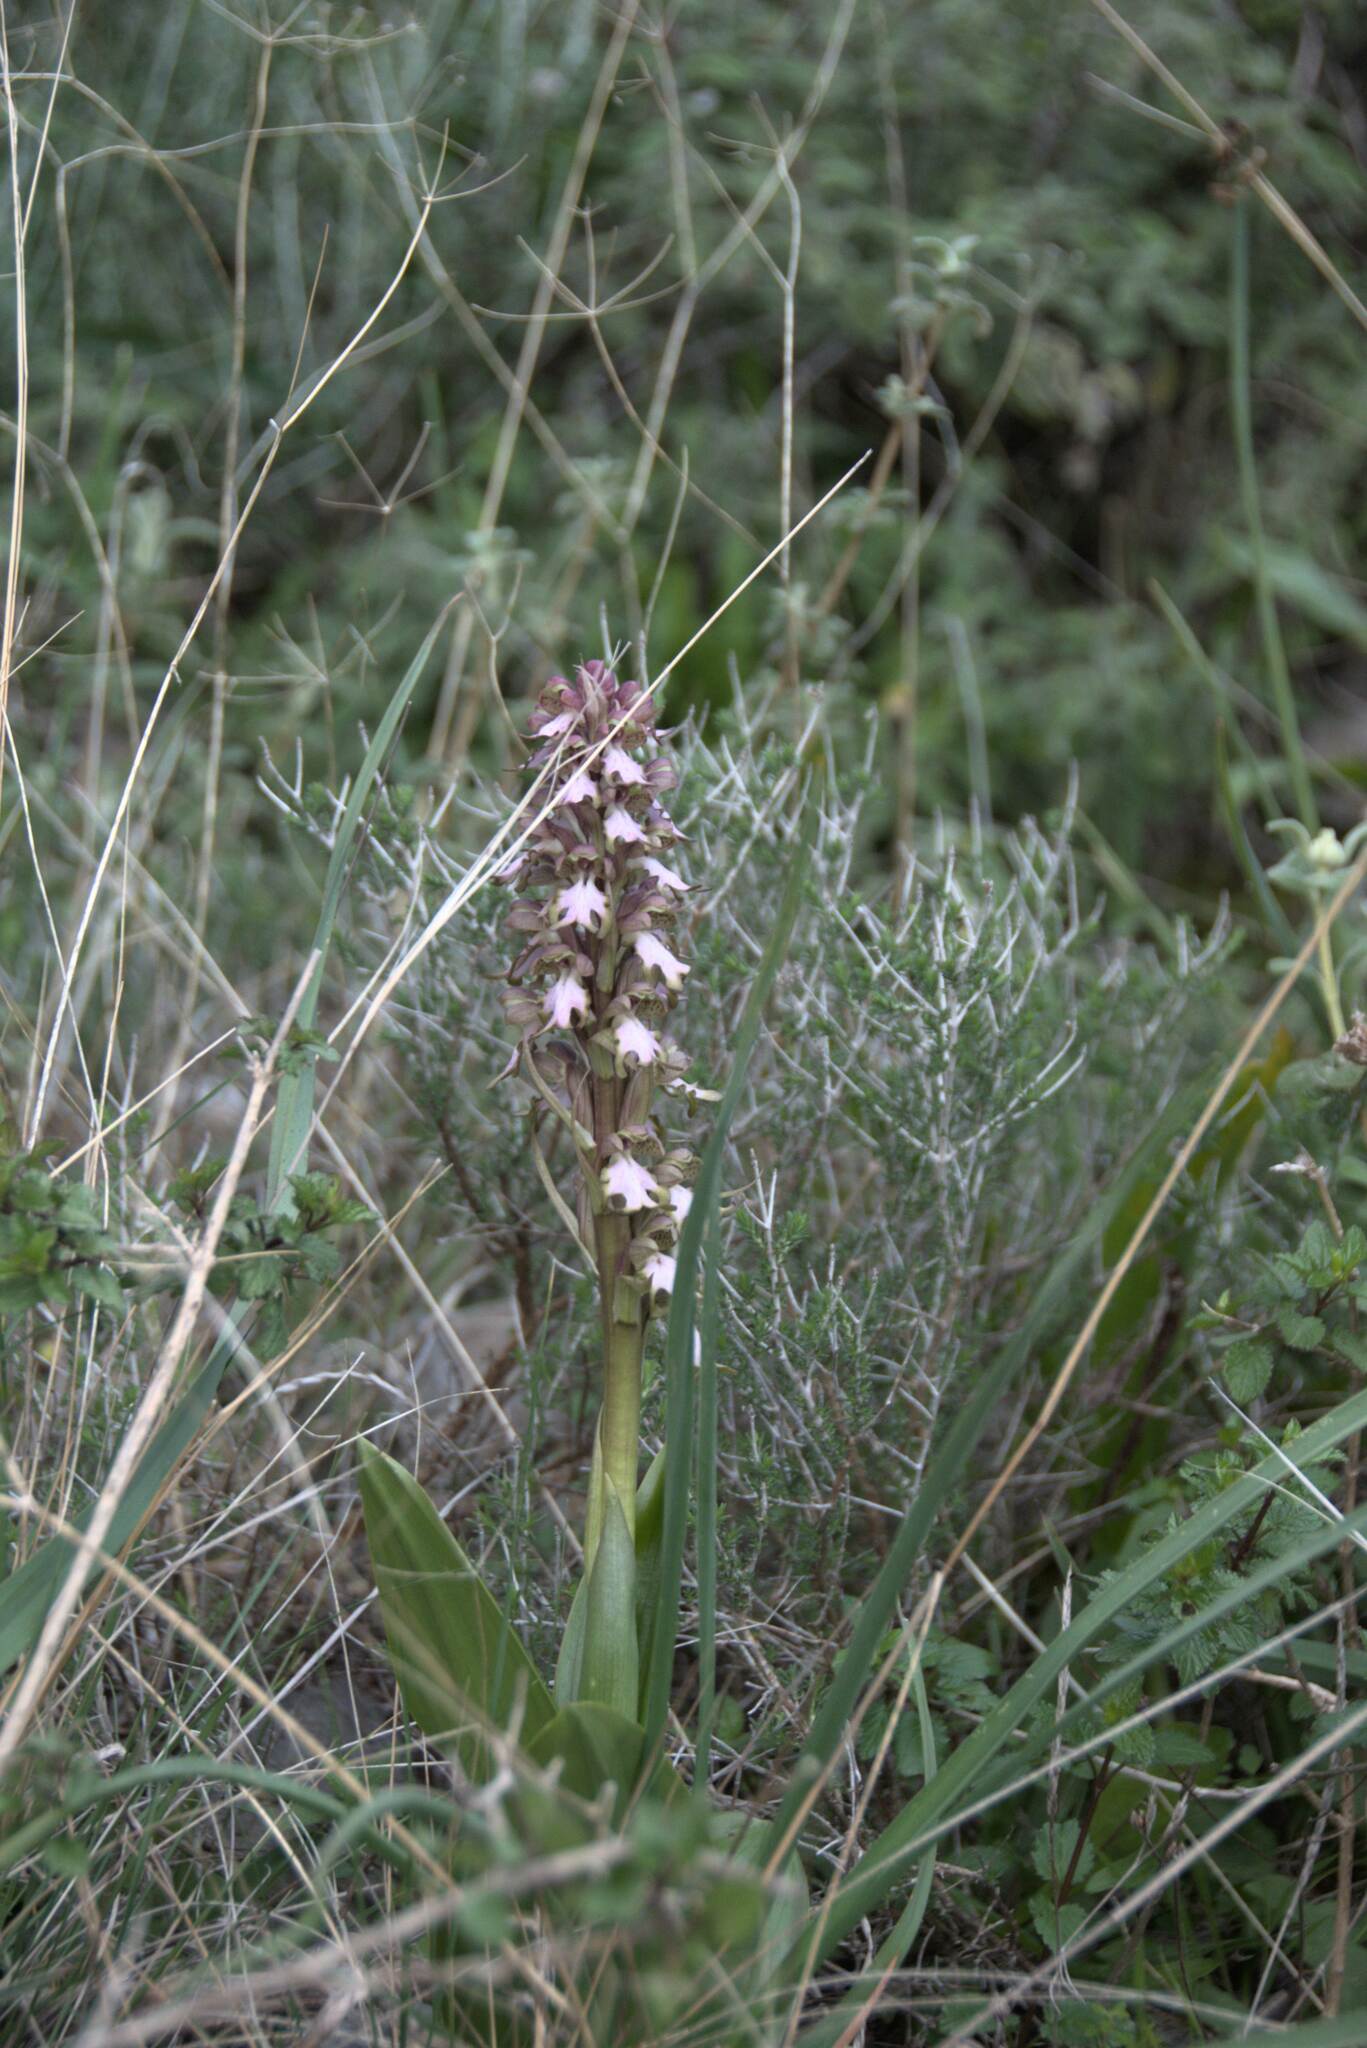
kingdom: Plantae
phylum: Tracheophyta
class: Liliopsida
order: Asparagales
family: Orchidaceae
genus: Himantoglossum
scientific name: Himantoglossum robertianum
